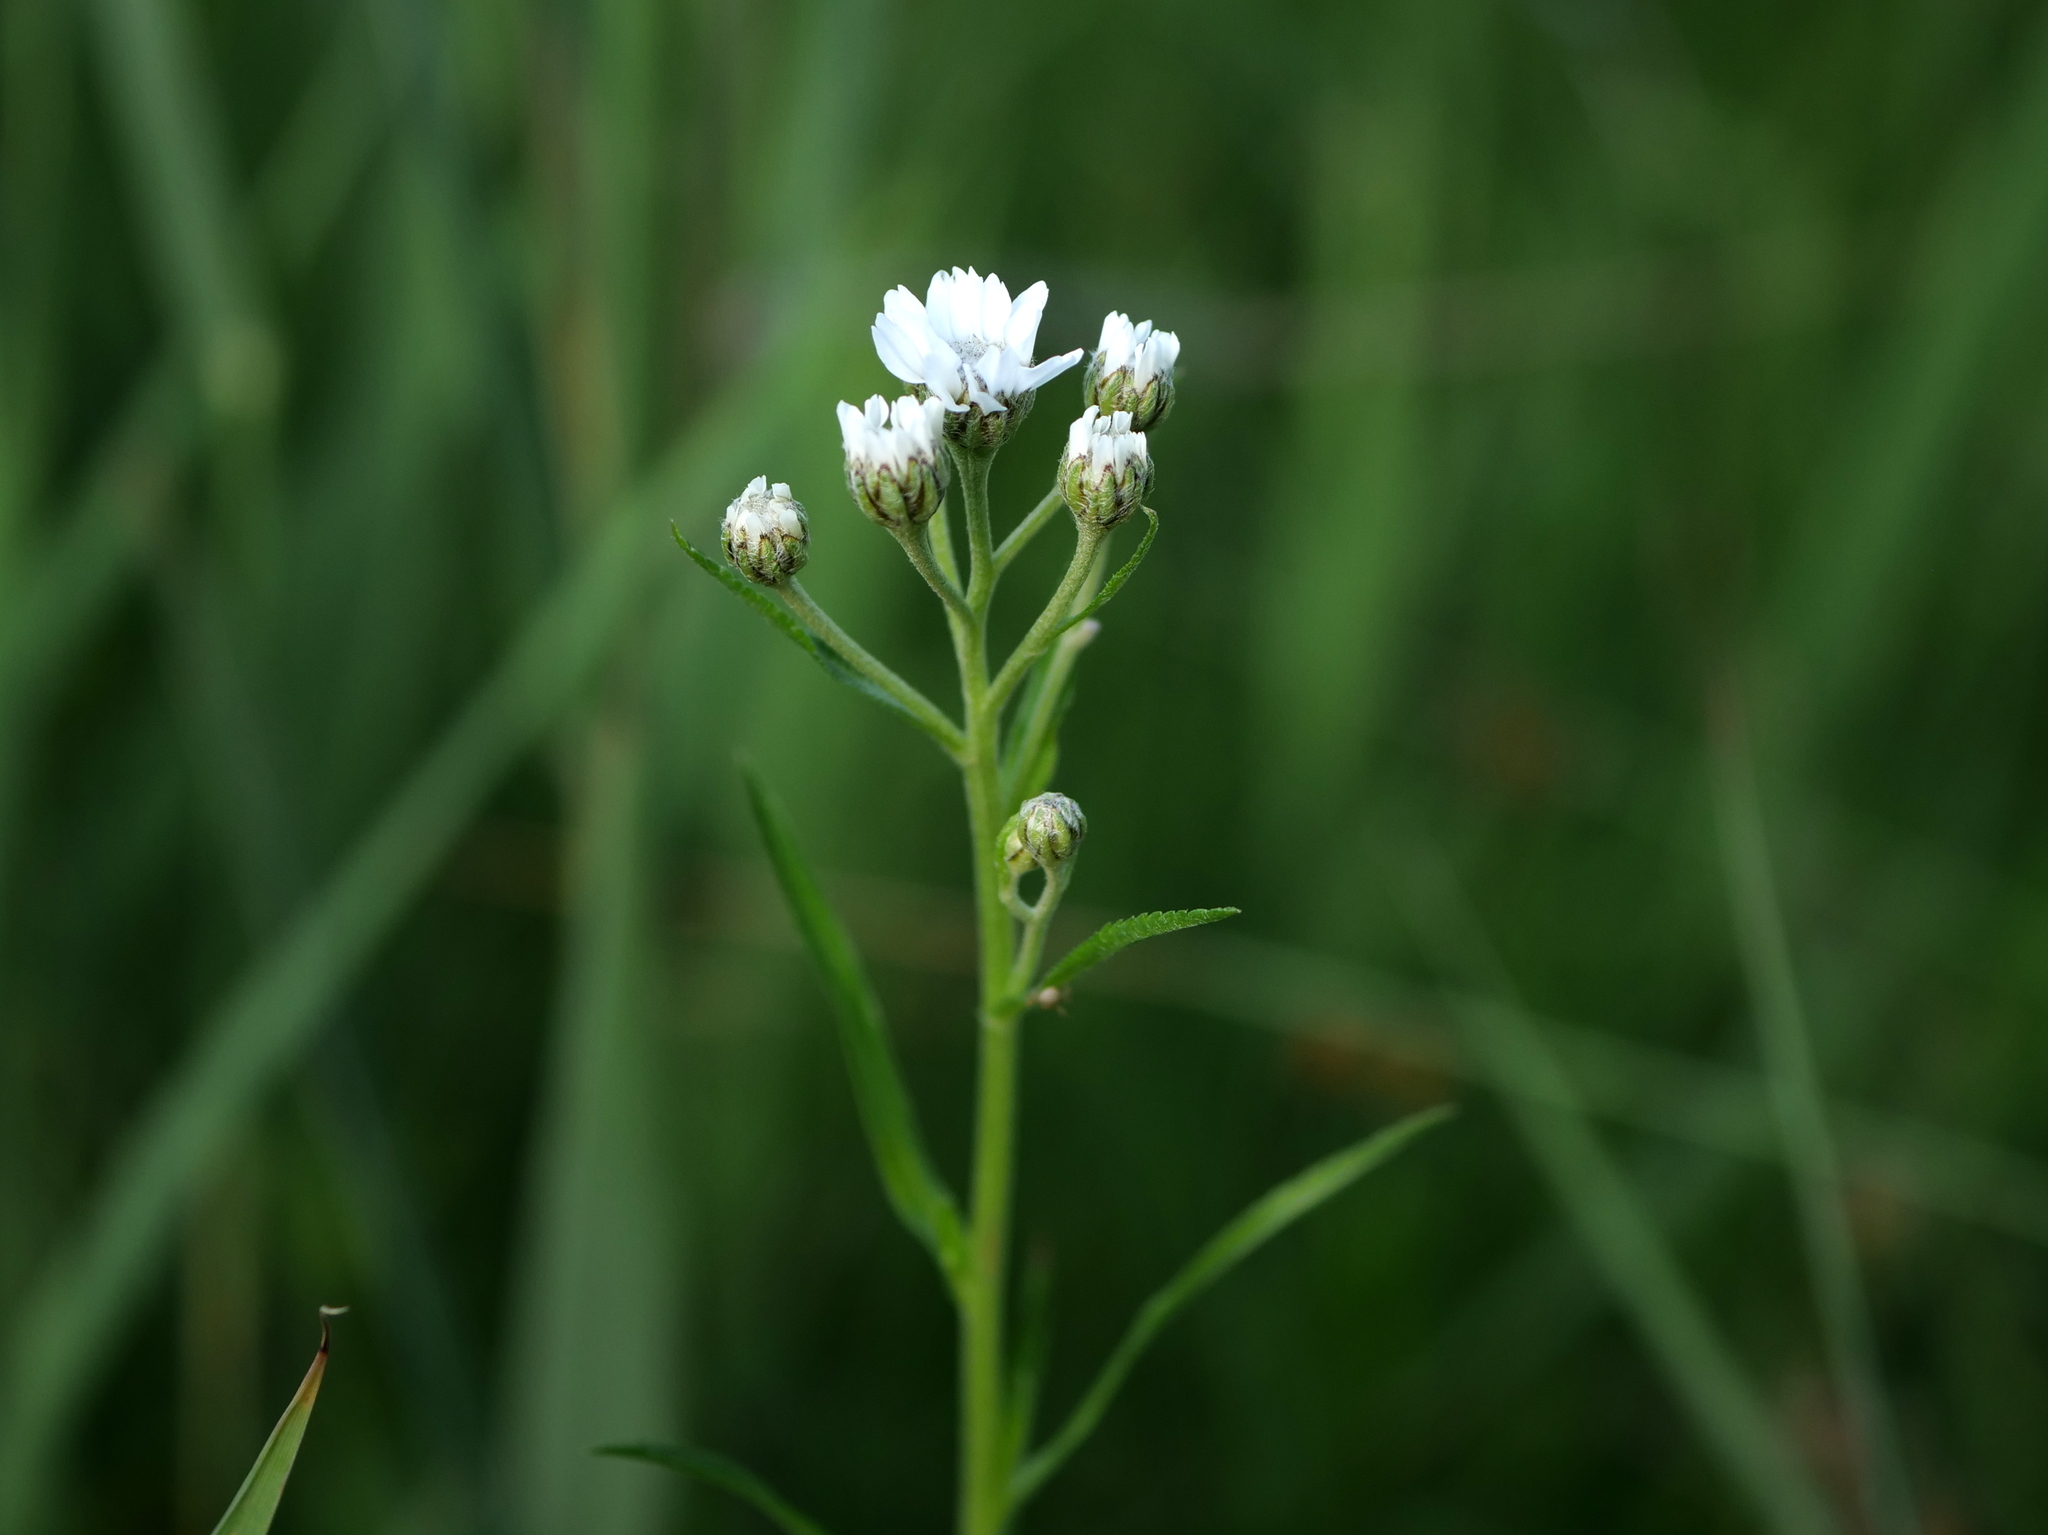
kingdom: Plantae
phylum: Tracheophyta
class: Magnoliopsida
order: Asterales
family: Asteraceae
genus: Achillea
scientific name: Achillea ptarmica
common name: Sneezeweed
